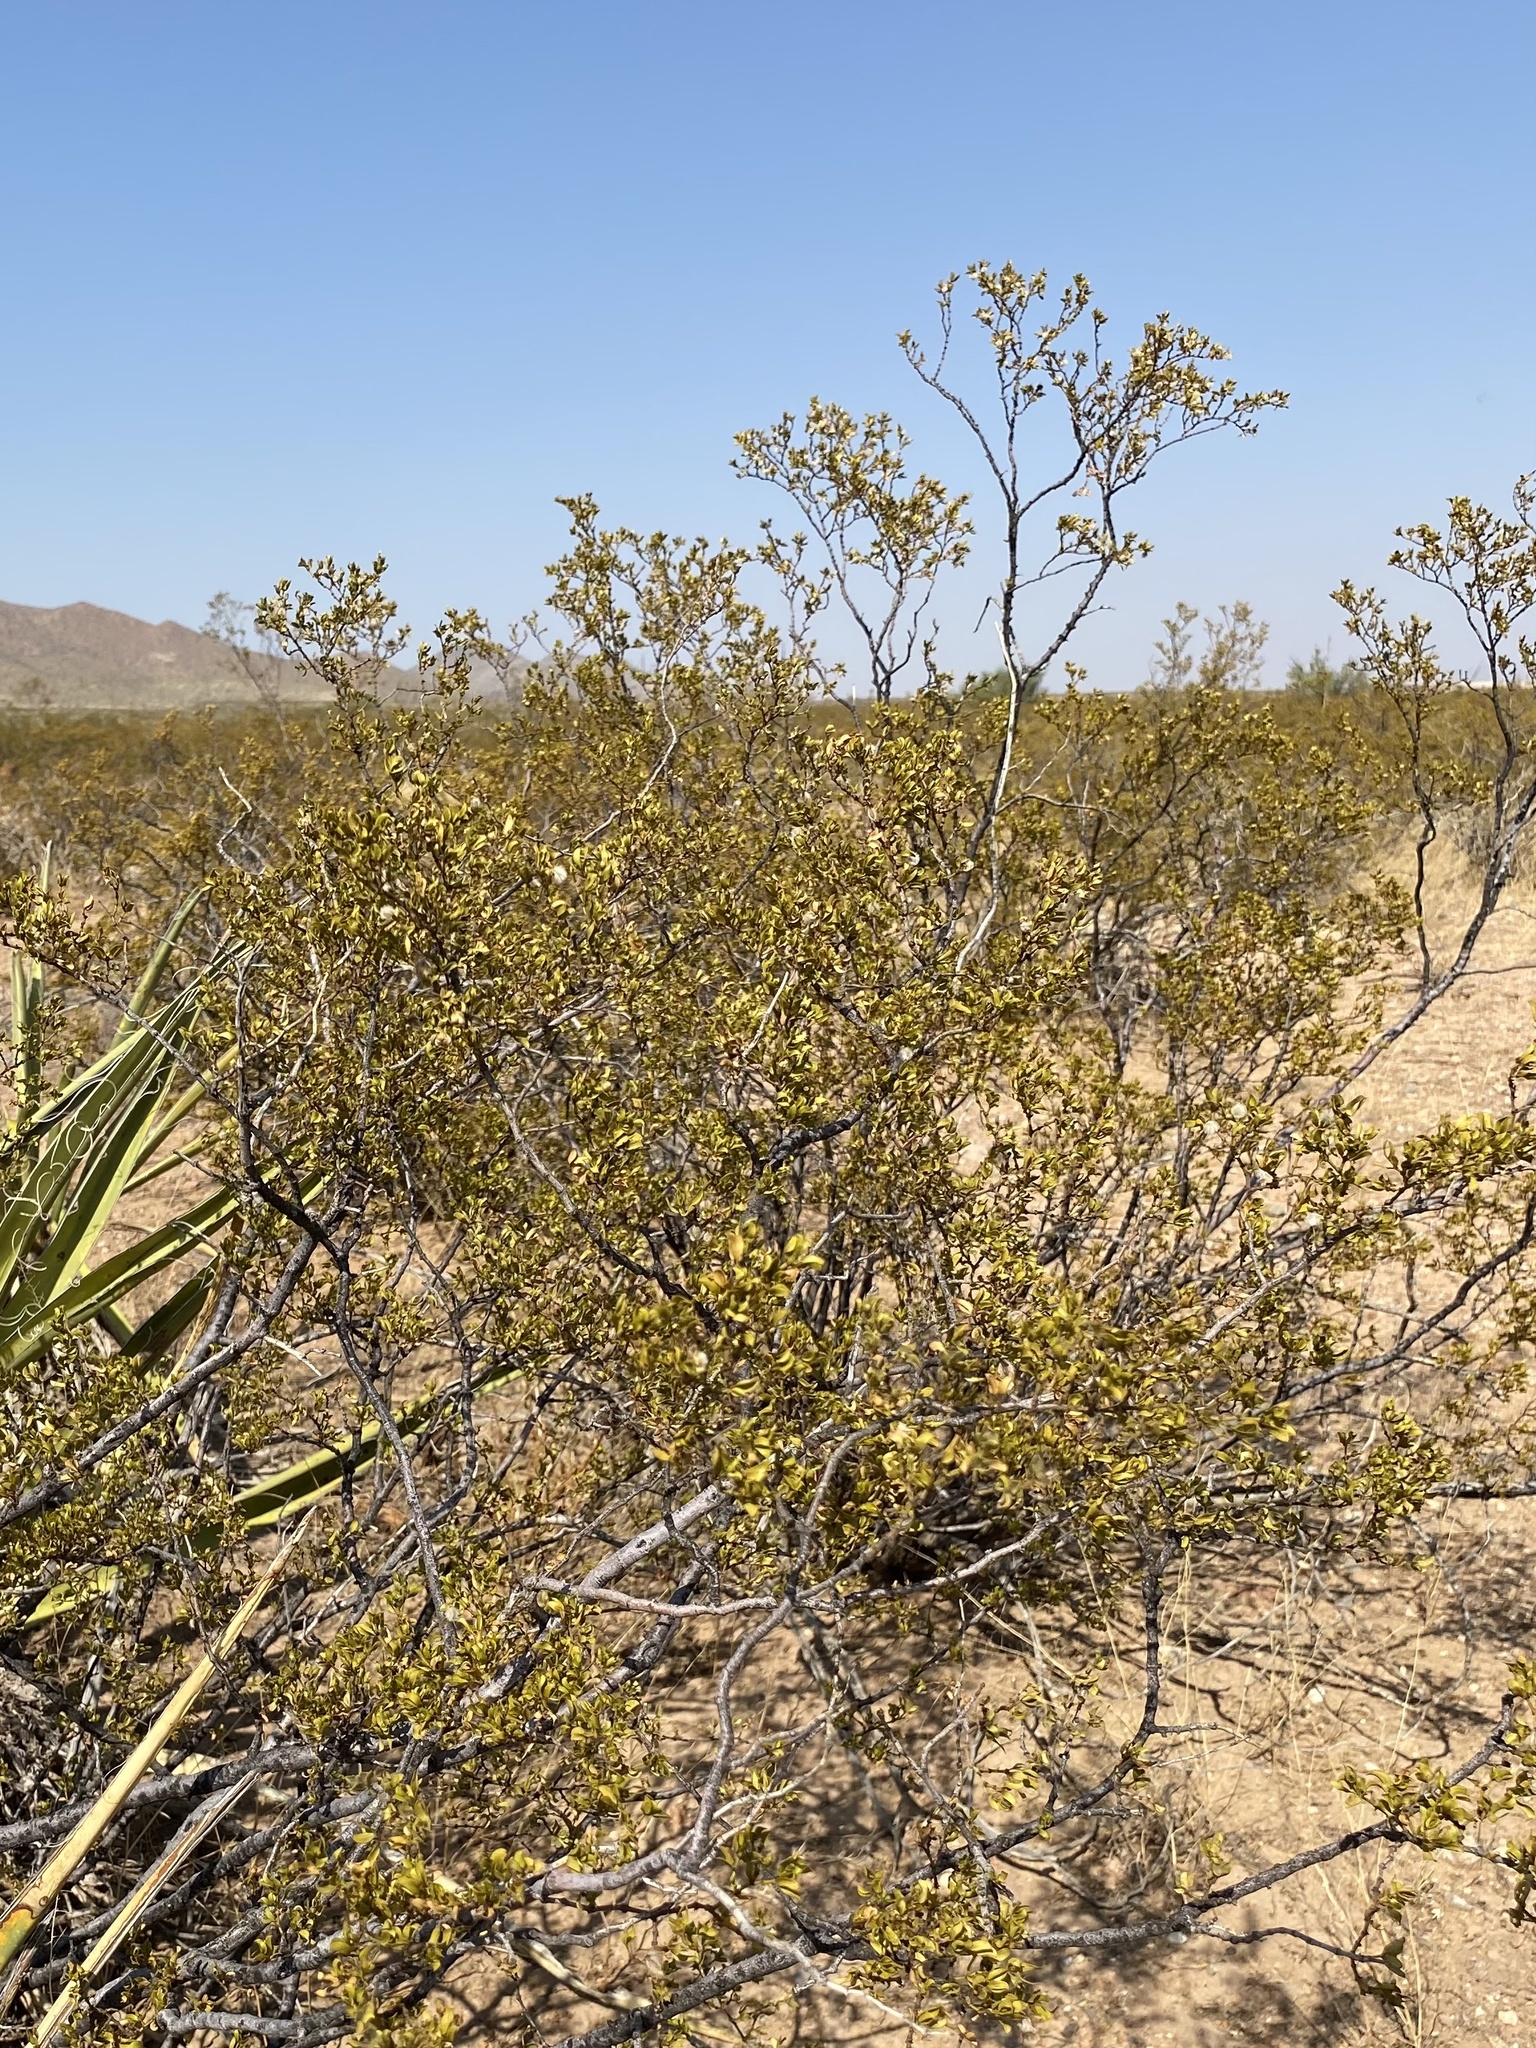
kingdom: Plantae
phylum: Tracheophyta
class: Magnoliopsida
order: Zygophyllales
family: Zygophyllaceae
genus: Larrea
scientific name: Larrea tridentata
